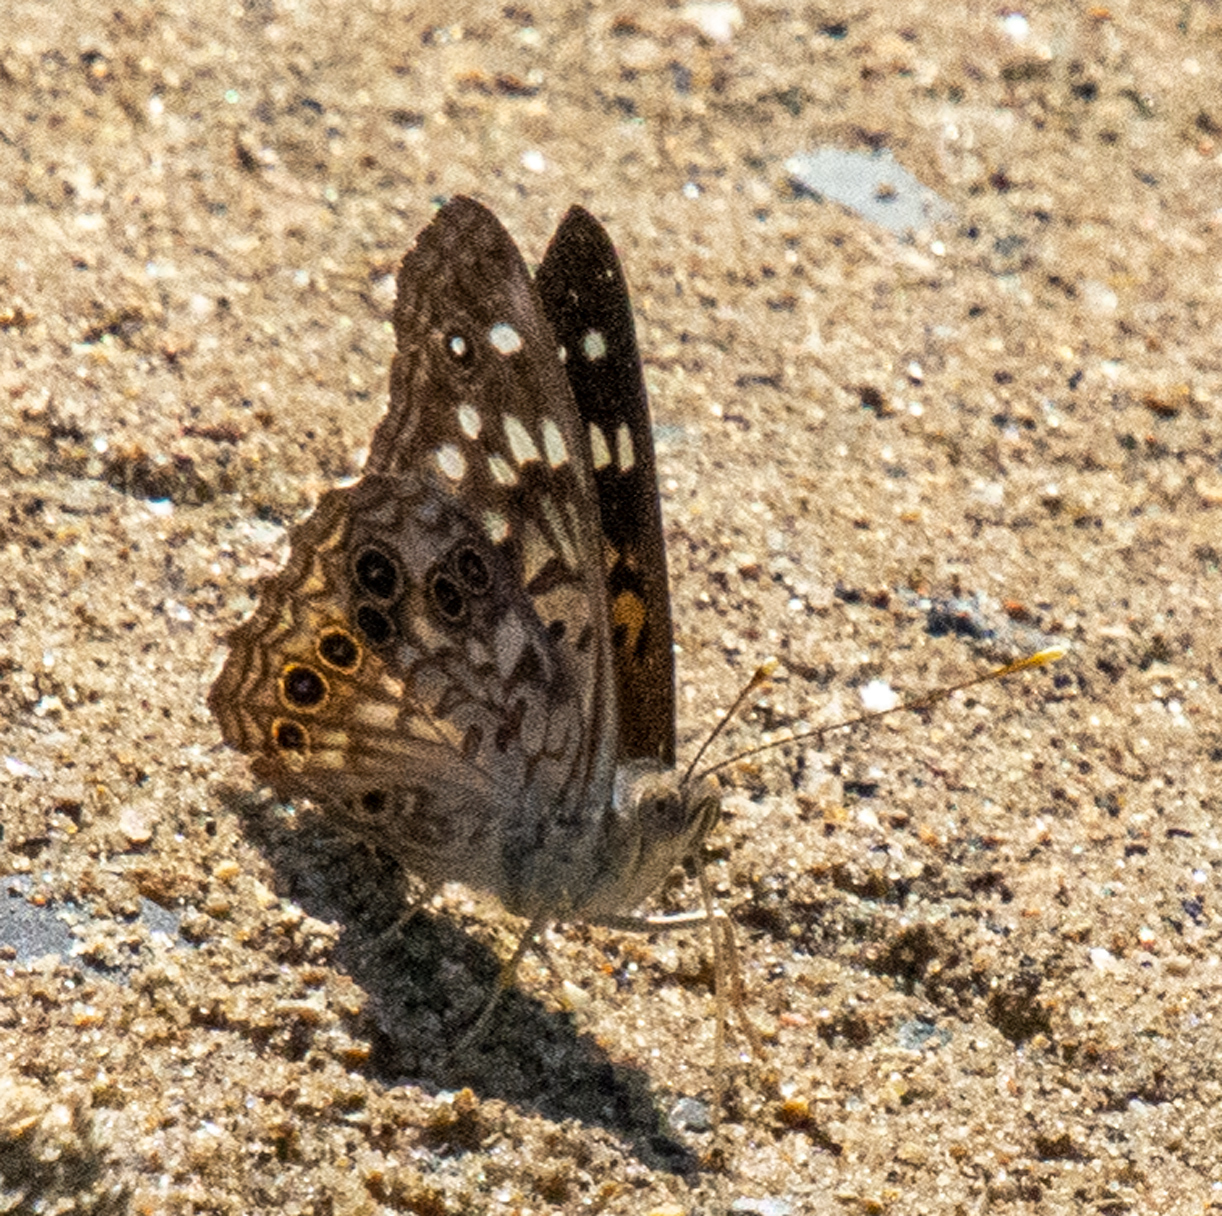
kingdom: Animalia
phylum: Arthropoda
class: Insecta
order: Lepidoptera
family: Nymphalidae
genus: Asterocampa
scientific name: Asterocampa celtis
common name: Hackberry emperor
